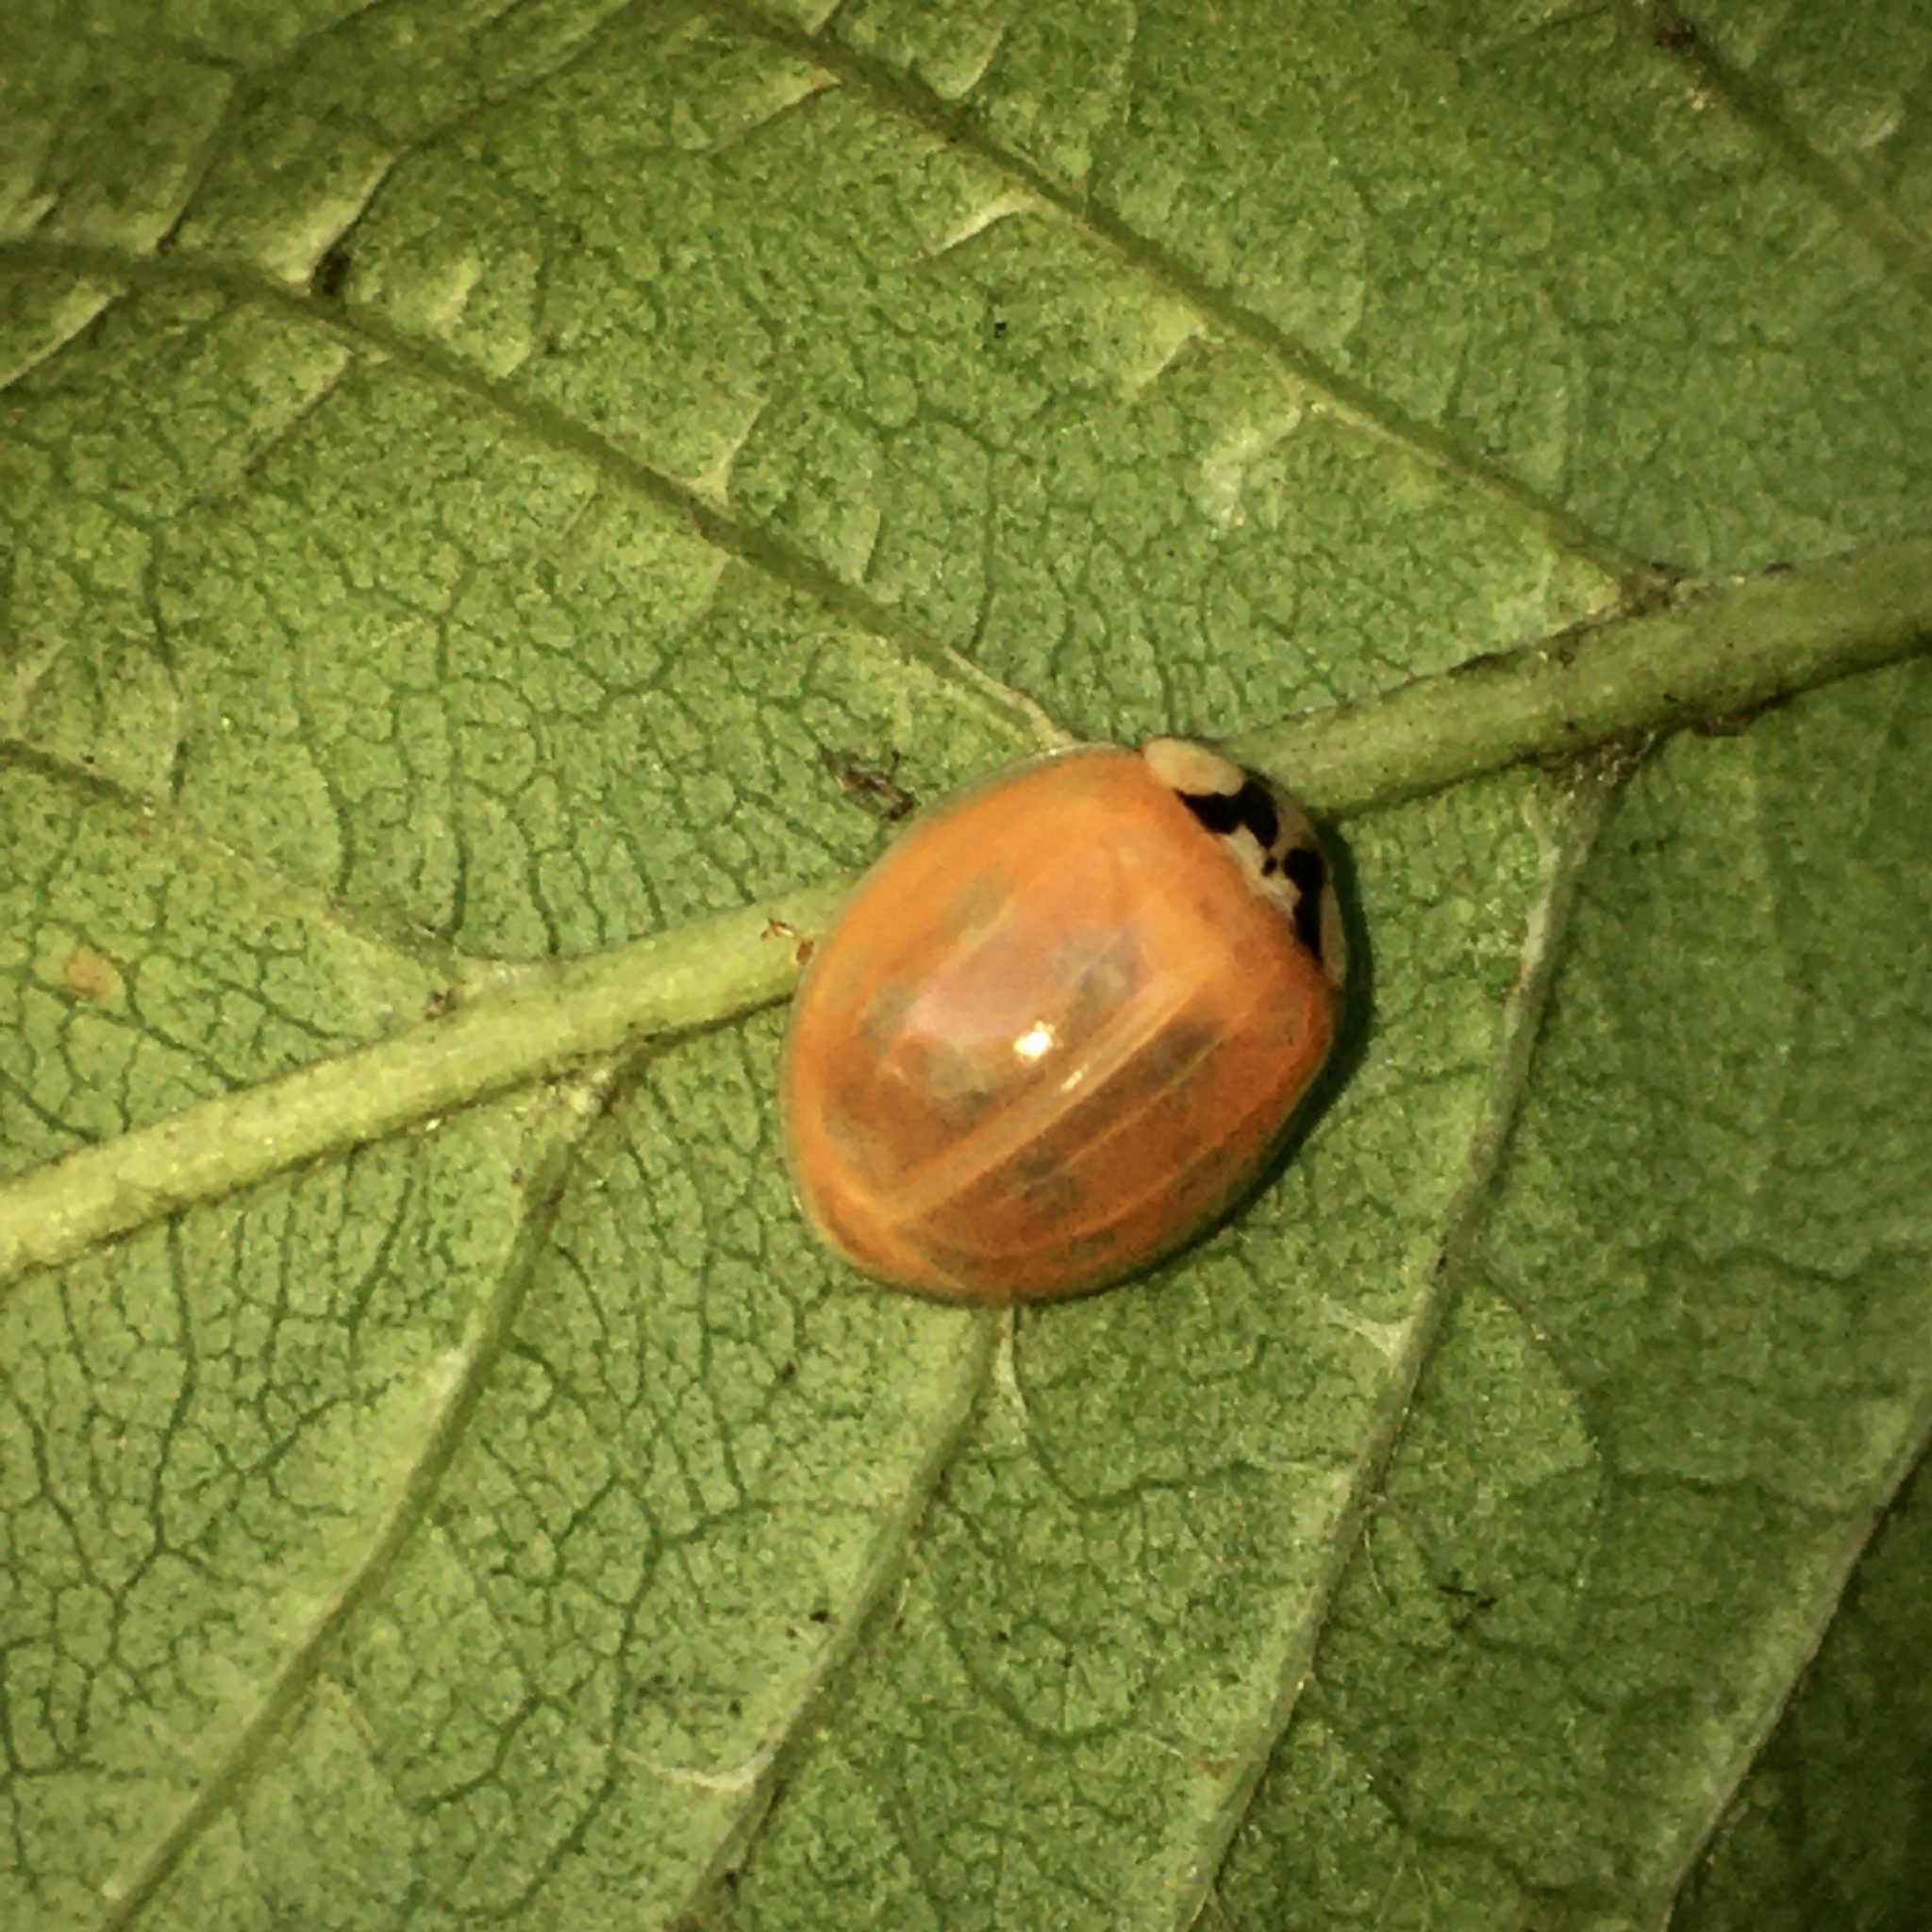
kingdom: Animalia
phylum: Arthropoda
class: Insecta
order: Coleoptera
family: Coccinellidae
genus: Harmonia
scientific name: Harmonia axyridis
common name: Harlequin ladybird
